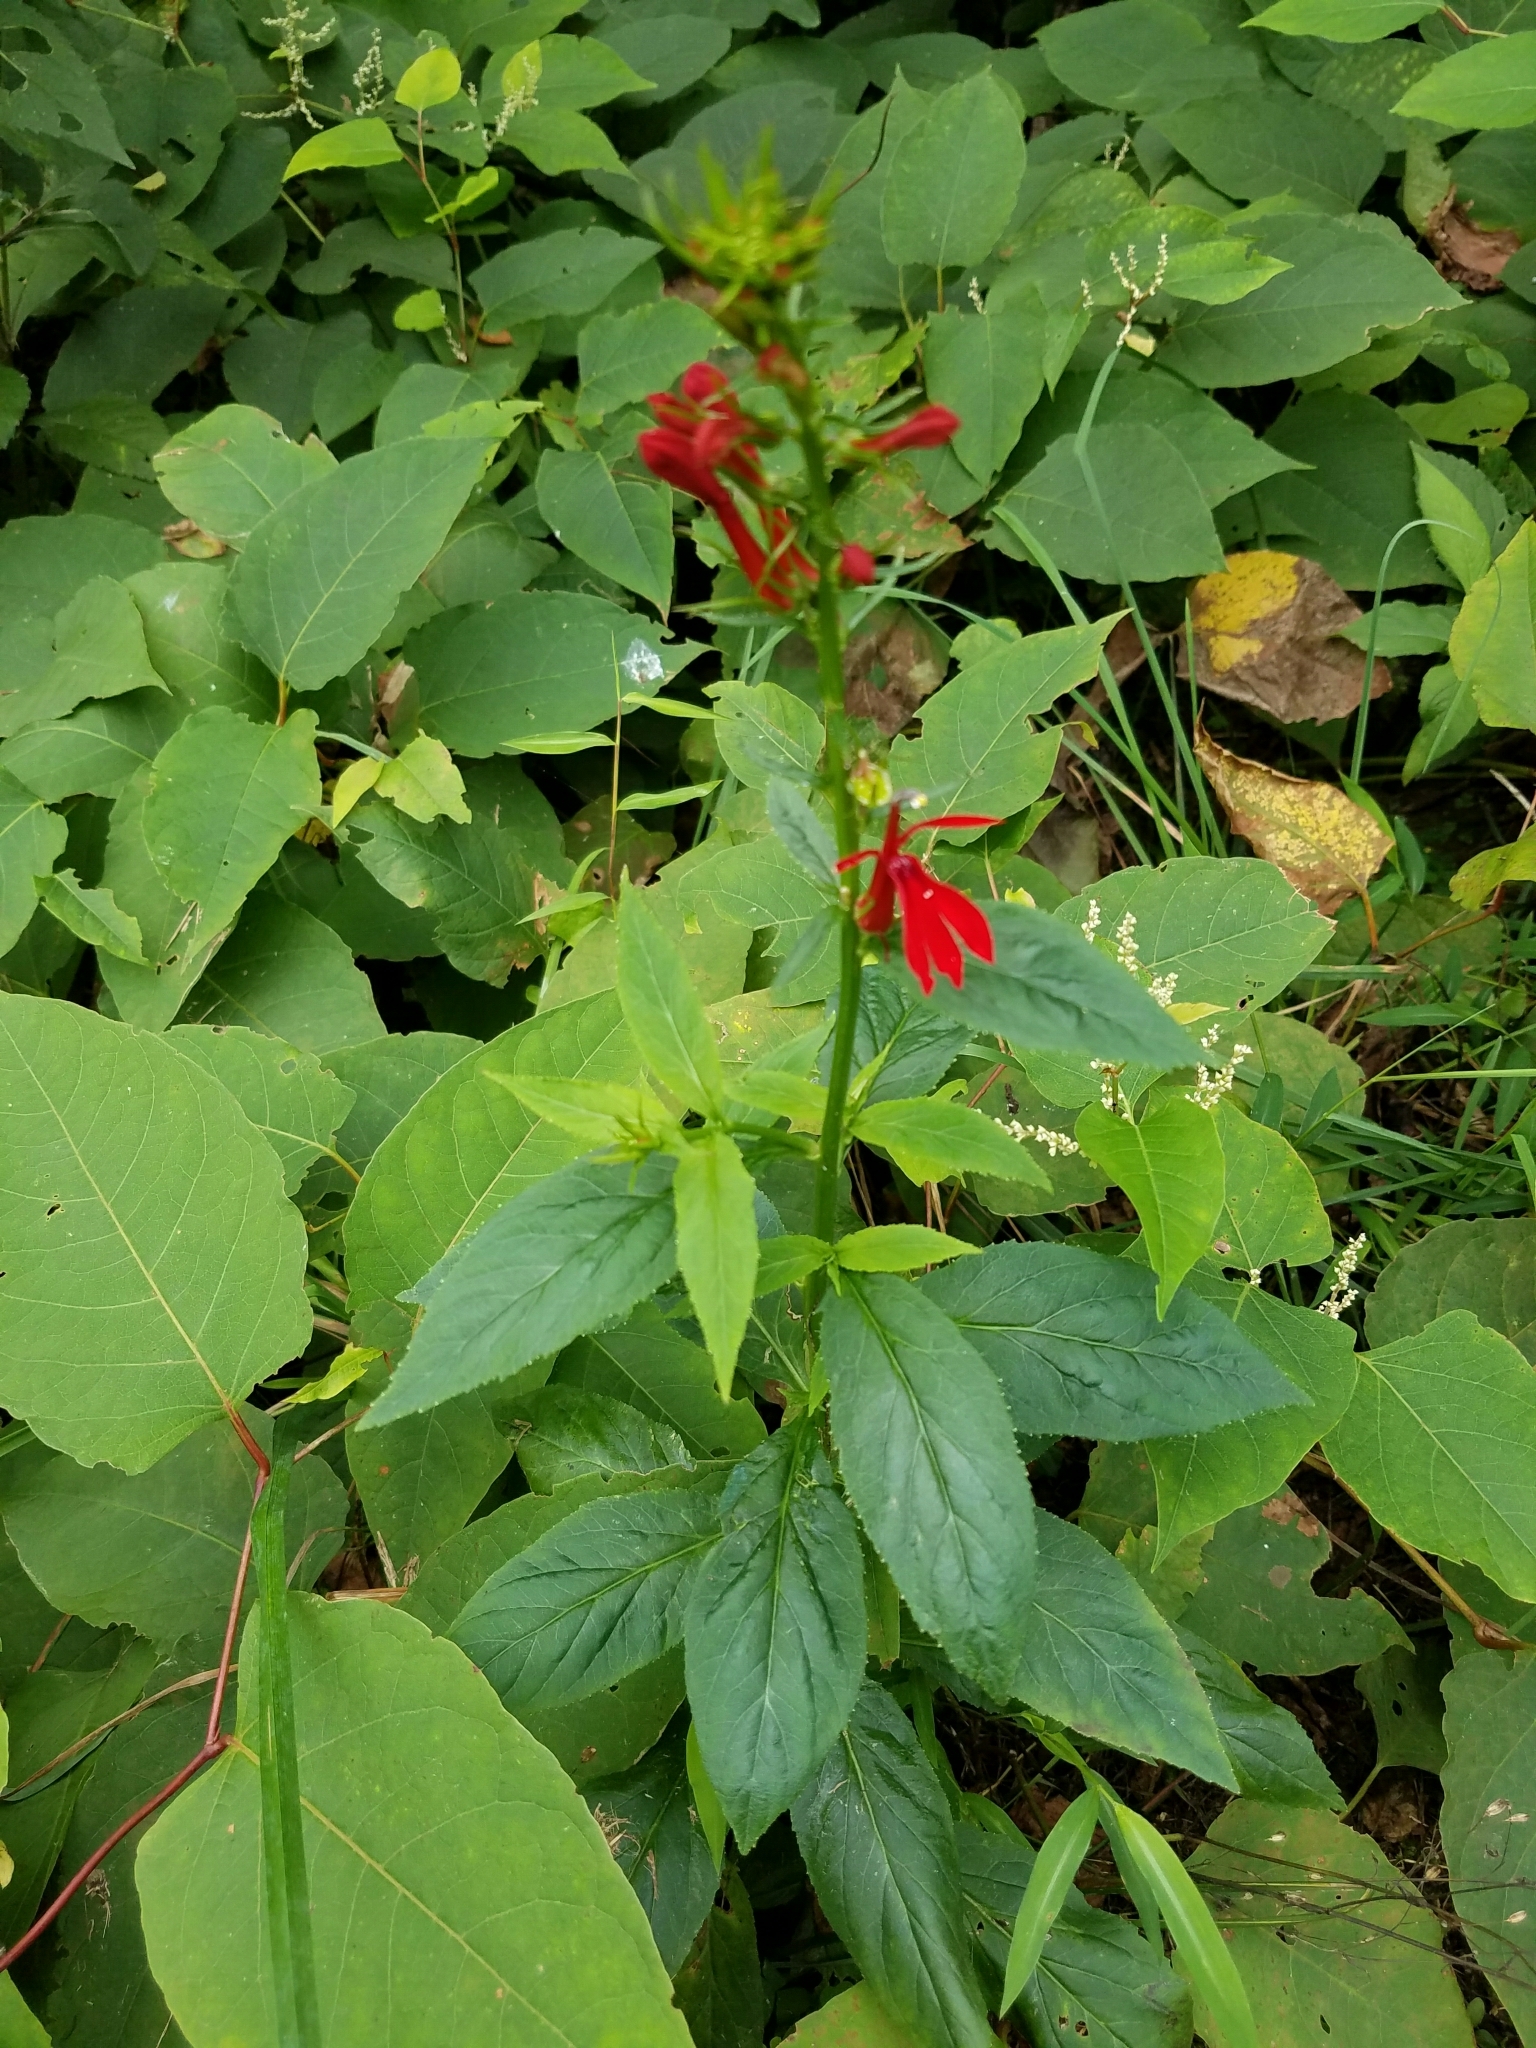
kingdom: Plantae
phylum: Tracheophyta
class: Magnoliopsida
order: Asterales
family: Campanulaceae
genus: Lobelia
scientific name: Lobelia cardinalis
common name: Cardinal flower
